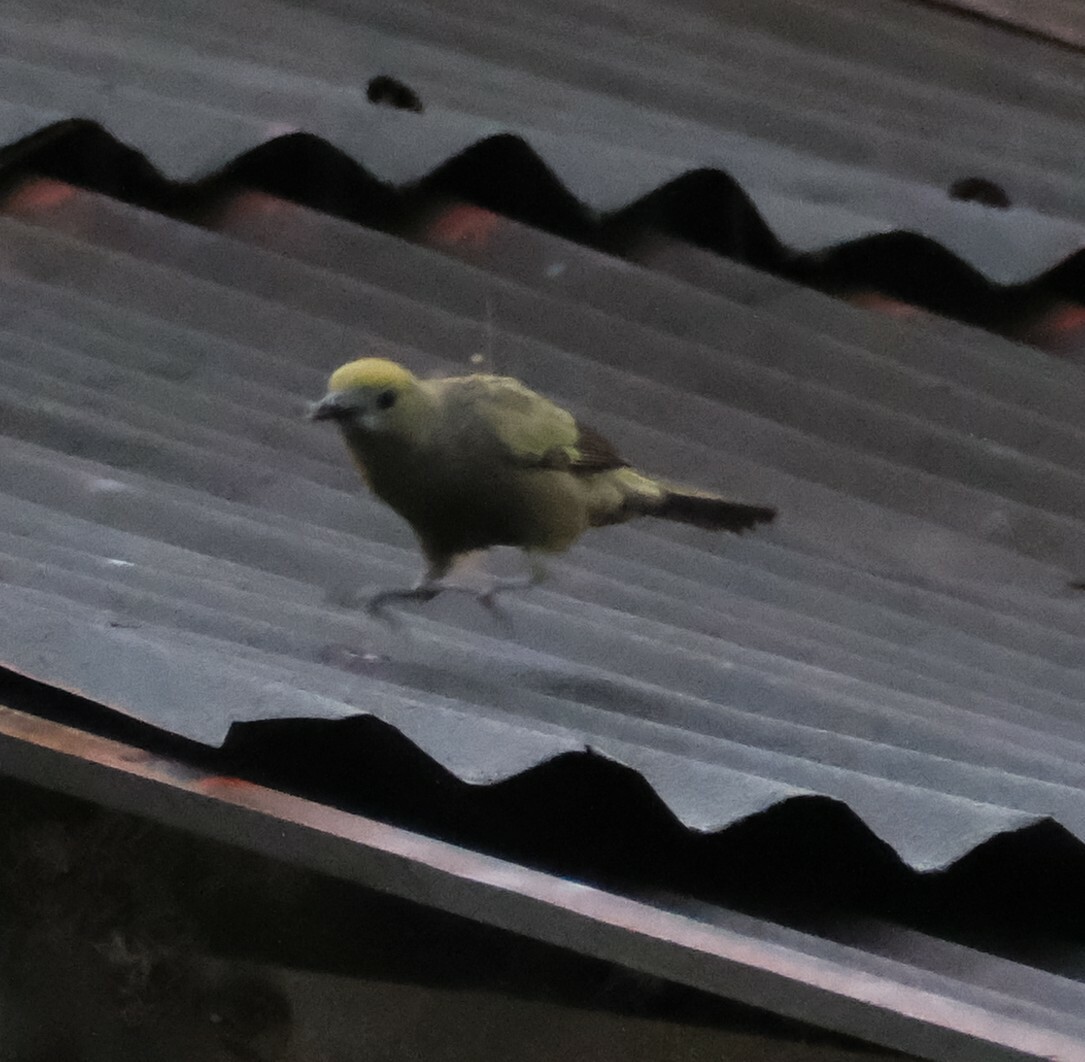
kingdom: Animalia
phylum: Chordata
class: Aves
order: Passeriformes
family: Thraupidae
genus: Thraupis
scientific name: Thraupis palmarum
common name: Palm tanager
